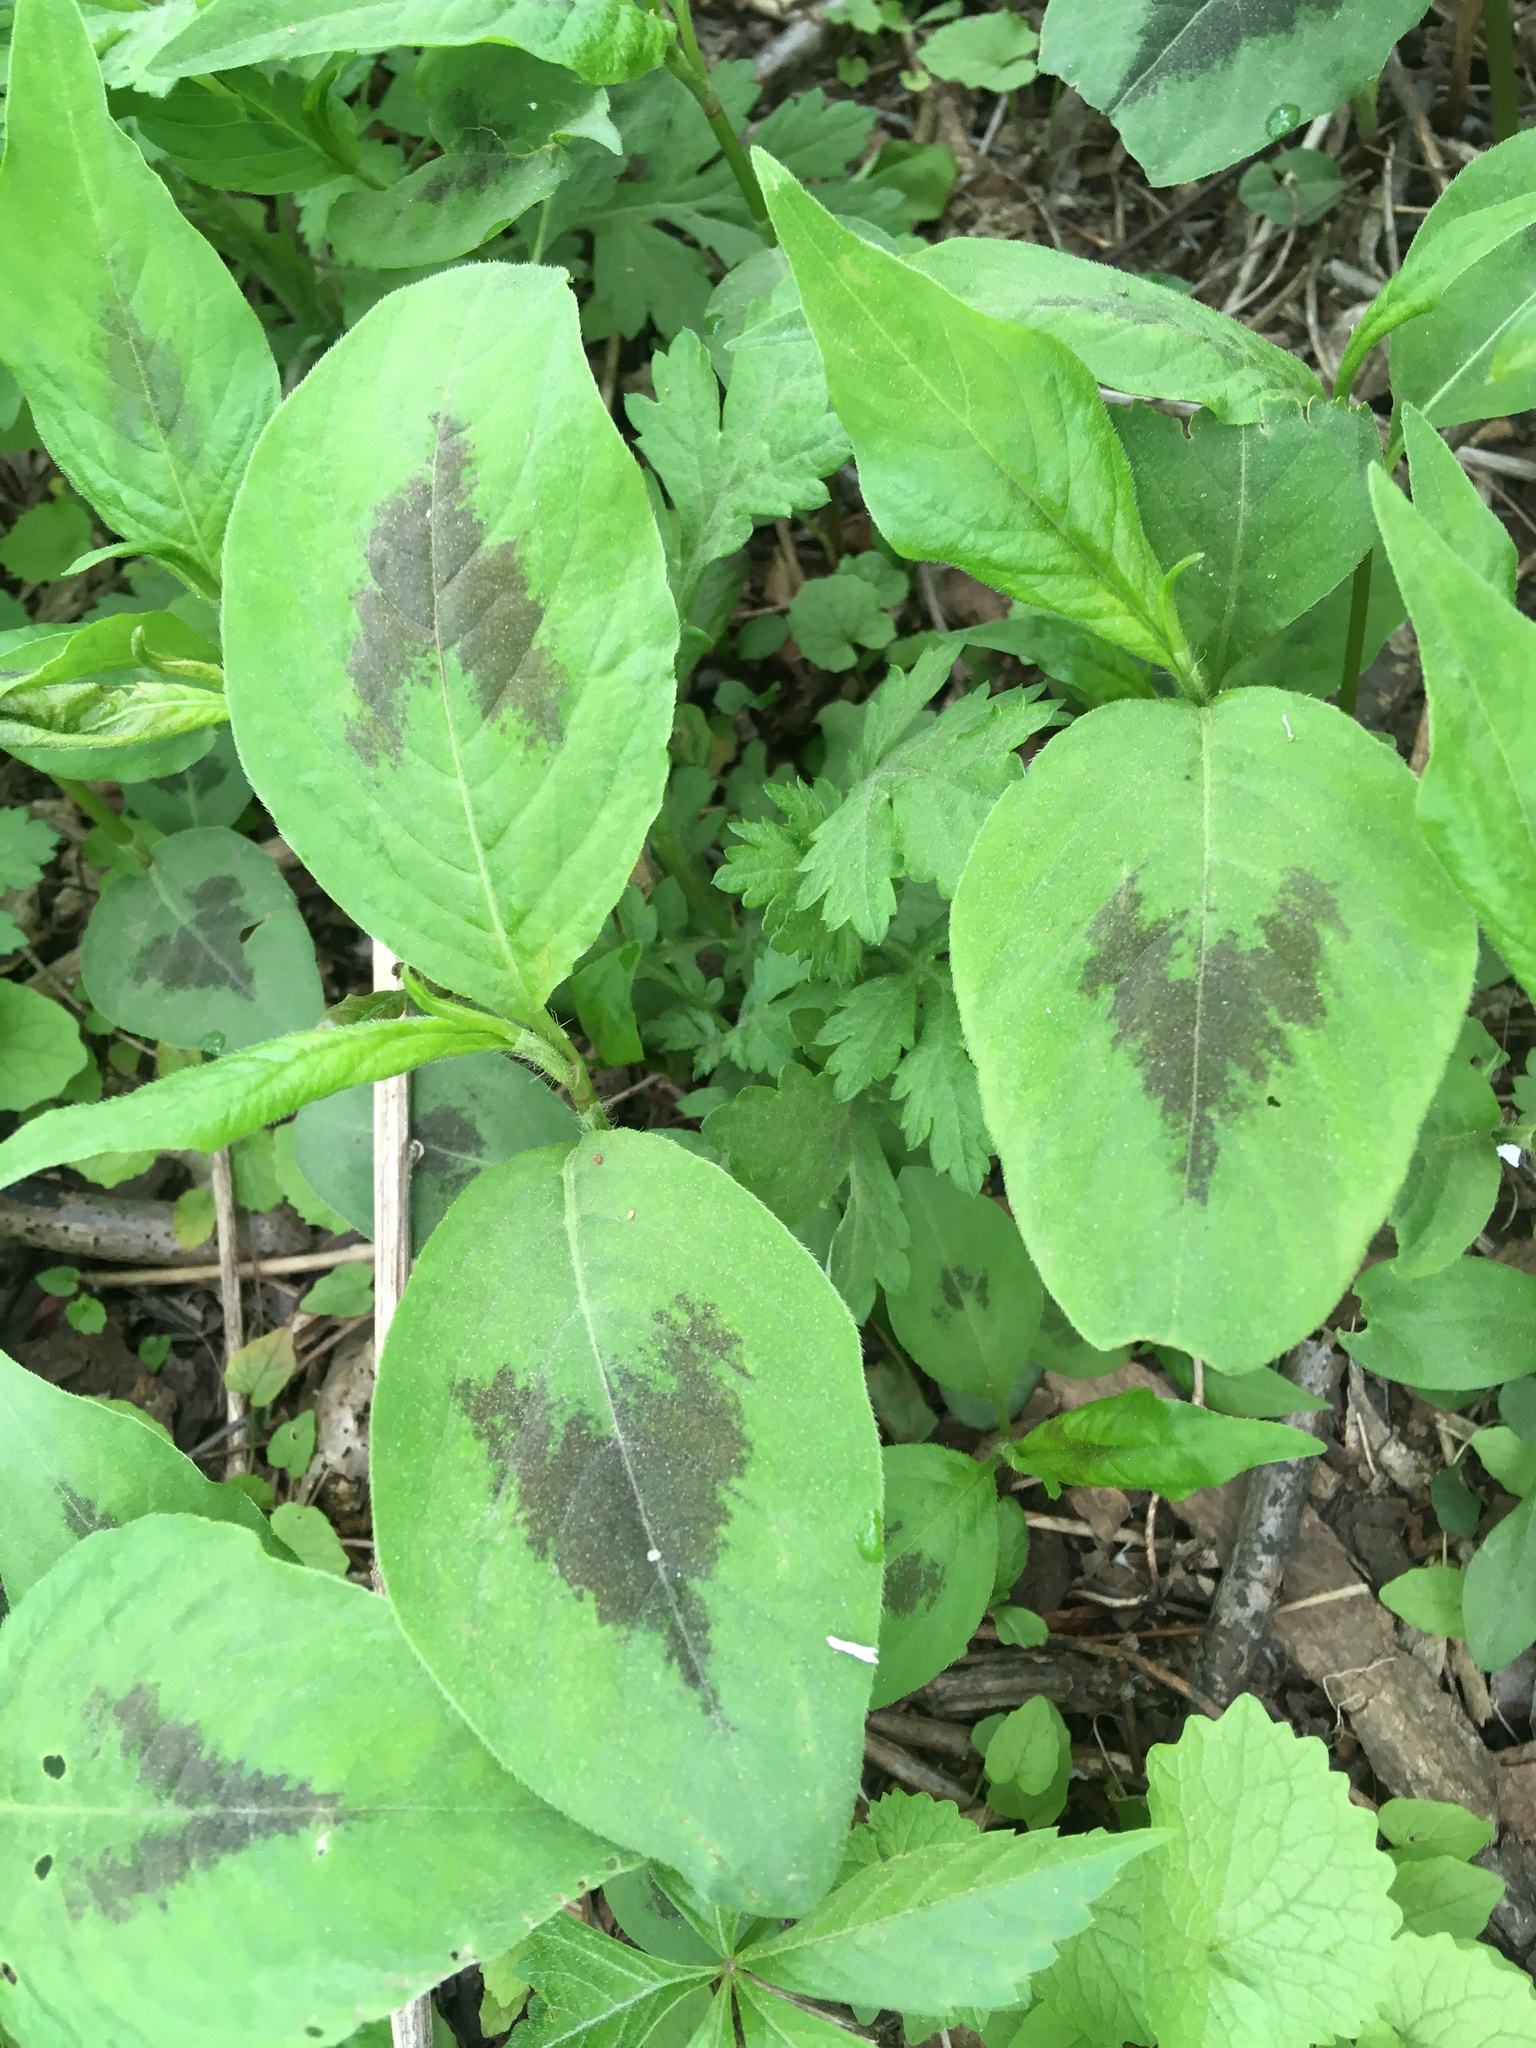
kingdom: Plantae
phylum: Tracheophyta
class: Magnoliopsida
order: Caryophyllales
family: Polygonaceae
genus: Persicaria
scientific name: Persicaria virginiana
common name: Jumpseed
